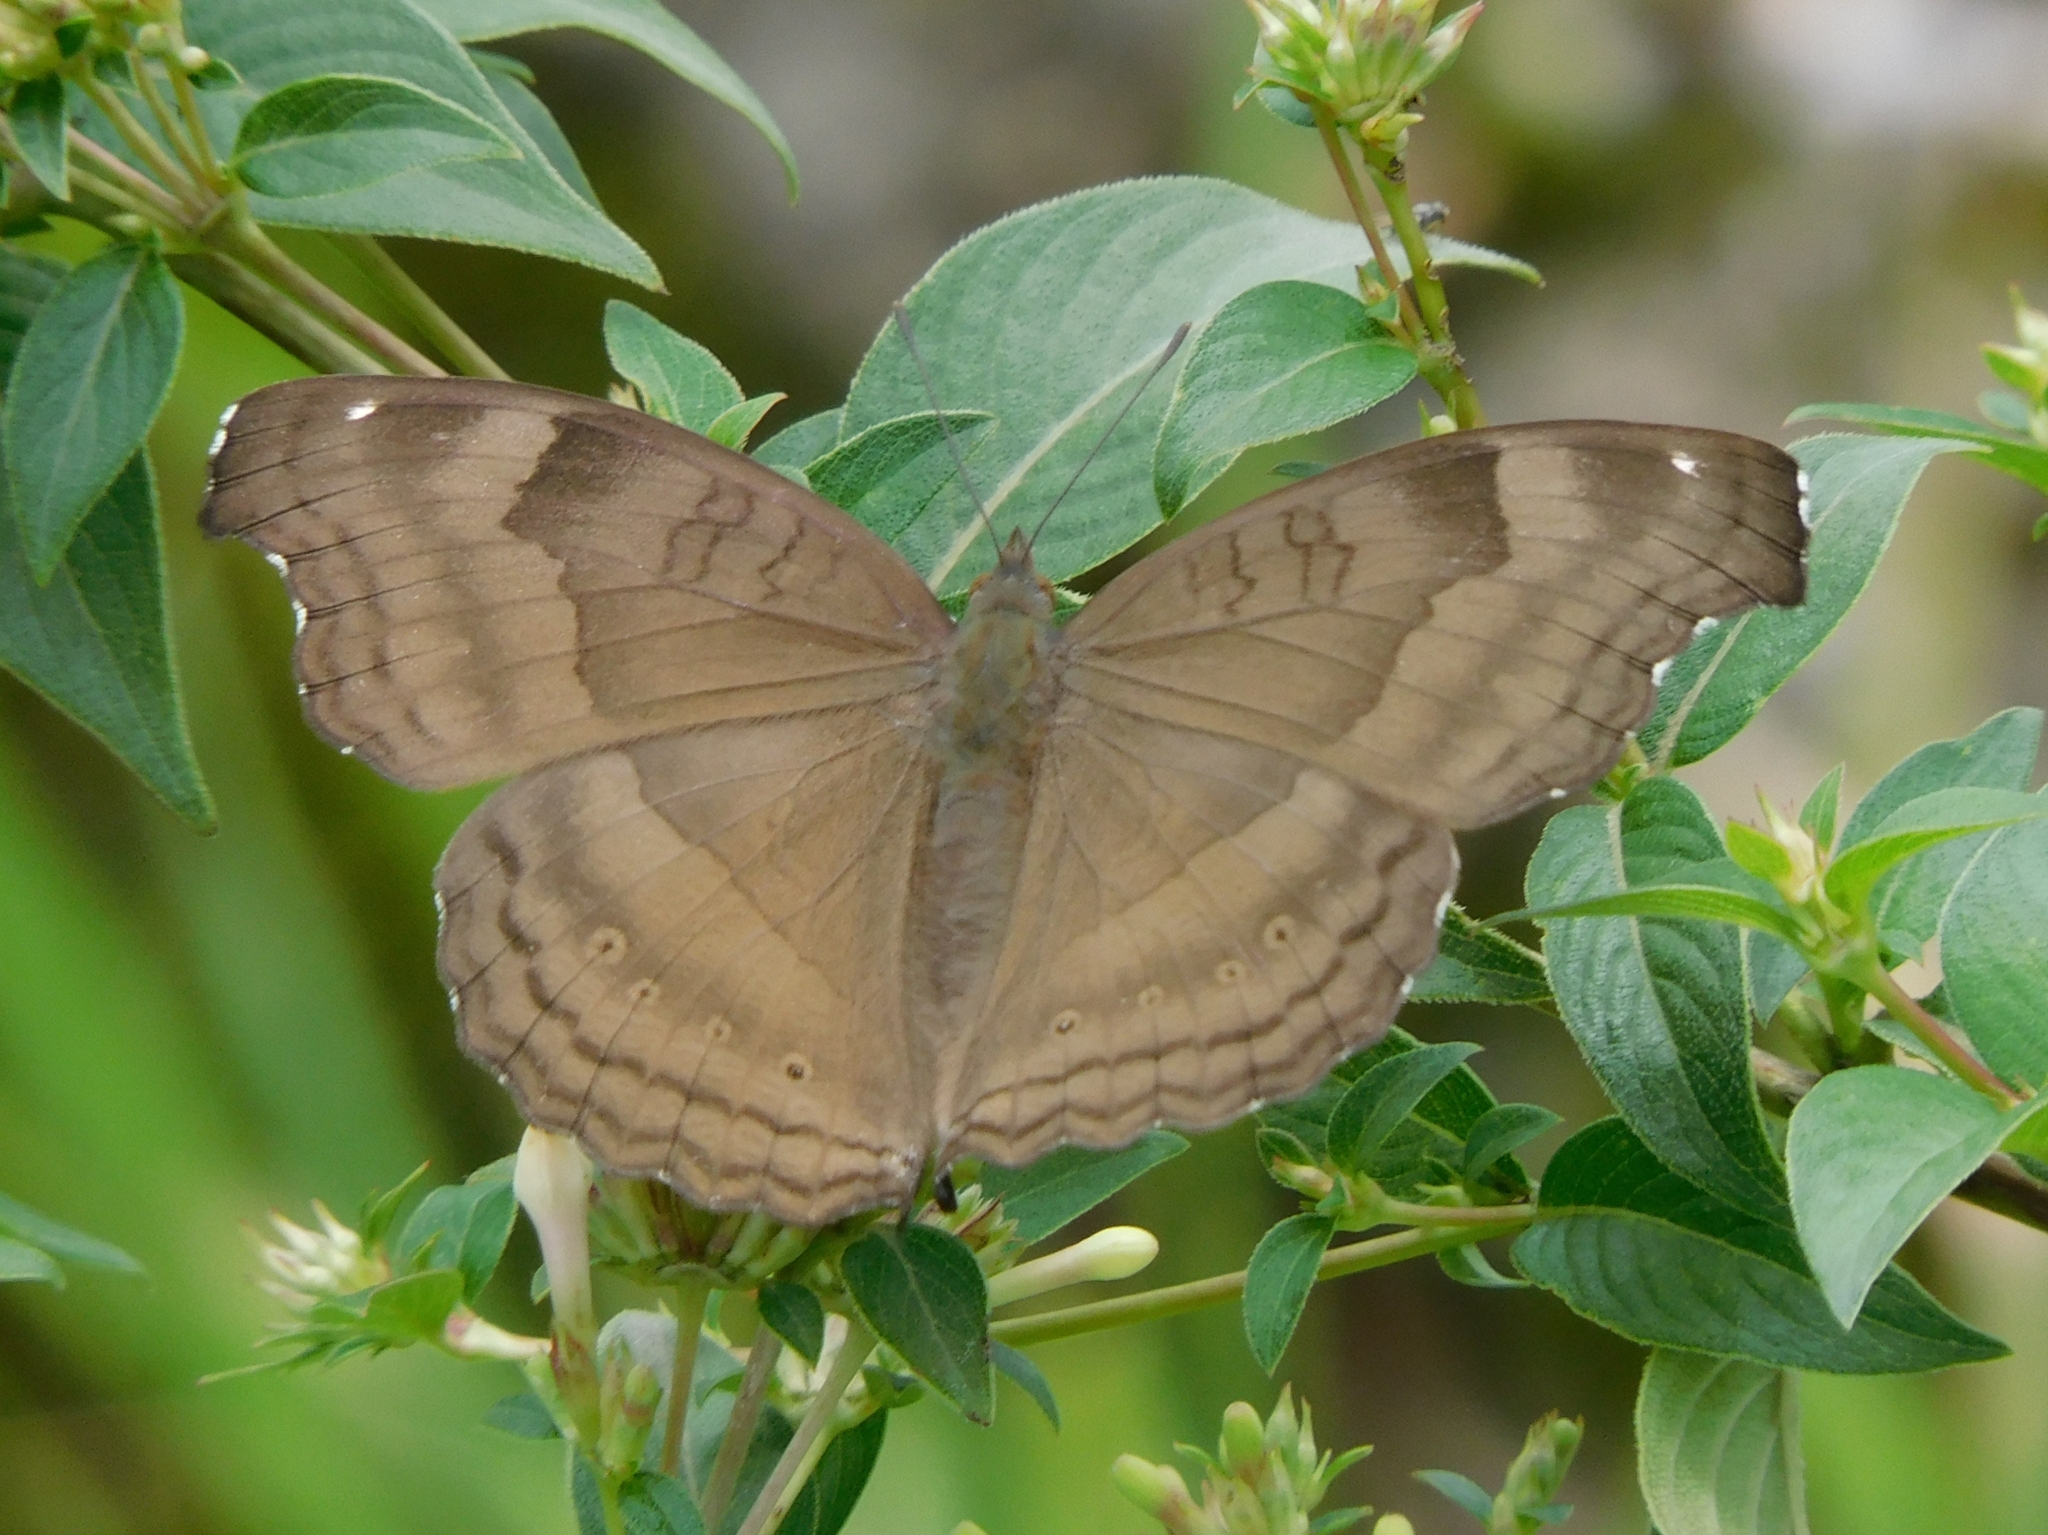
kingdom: Animalia
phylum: Arthropoda
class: Insecta
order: Lepidoptera
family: Nymphalidae
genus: Junonia
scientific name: Junonia iphita
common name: Chocolate pansy
